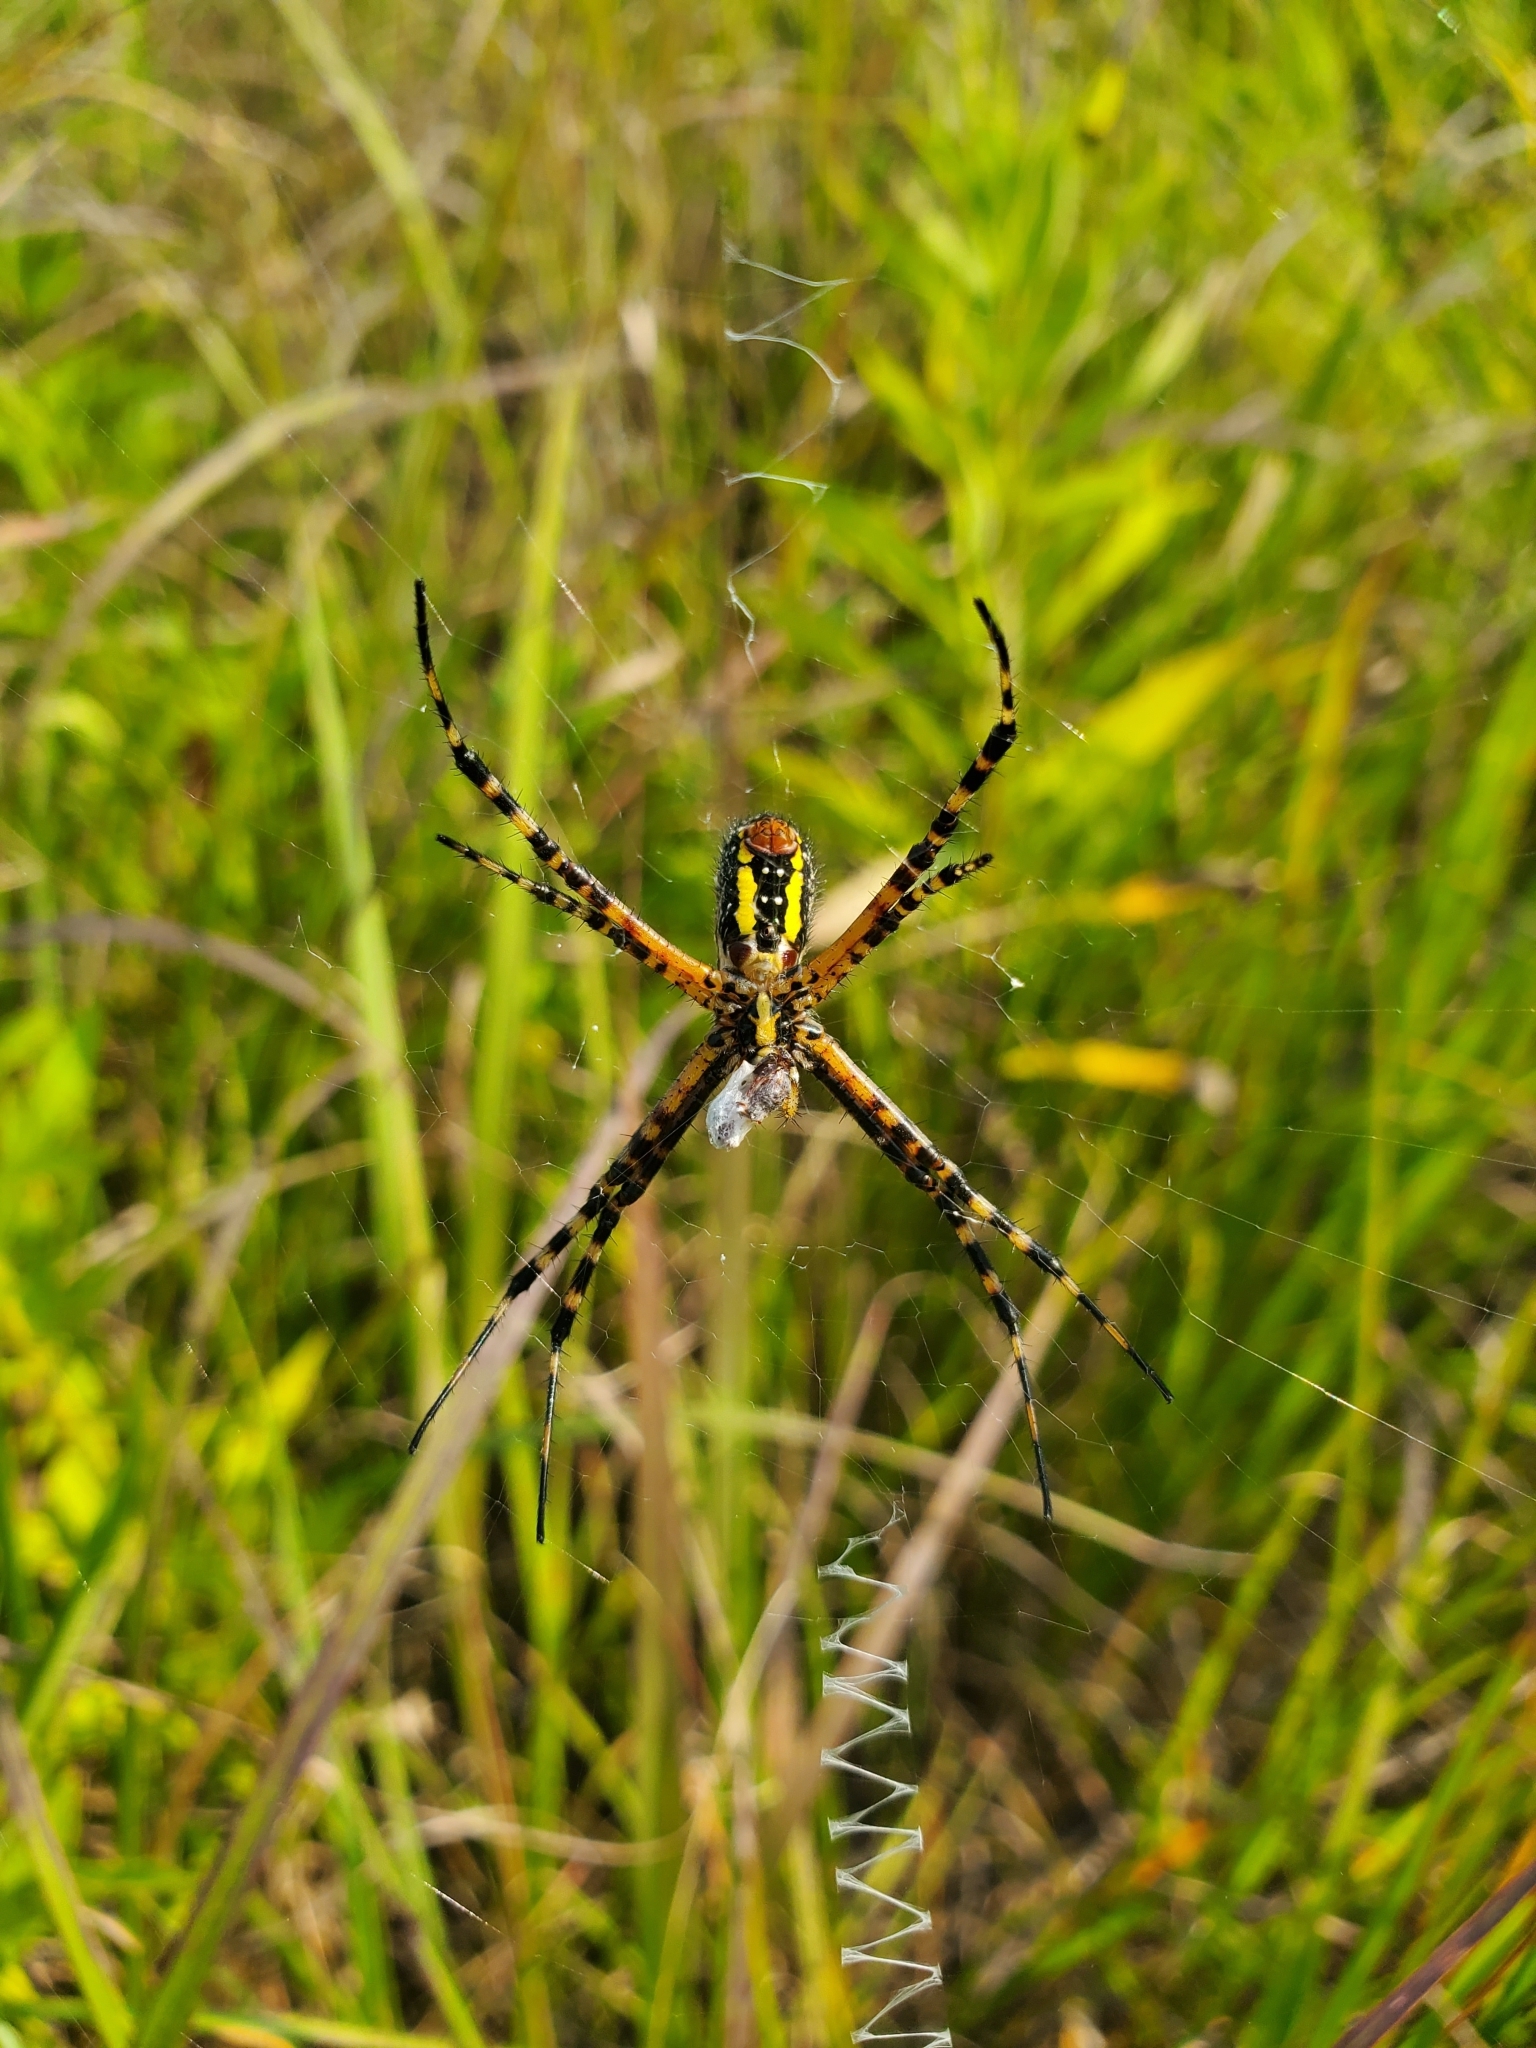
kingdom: Animalia
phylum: Arthropoda
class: Arachnida
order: Araneae
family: Araneidae
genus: Argiope
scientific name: Argiope aurantia
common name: Orb weavers
